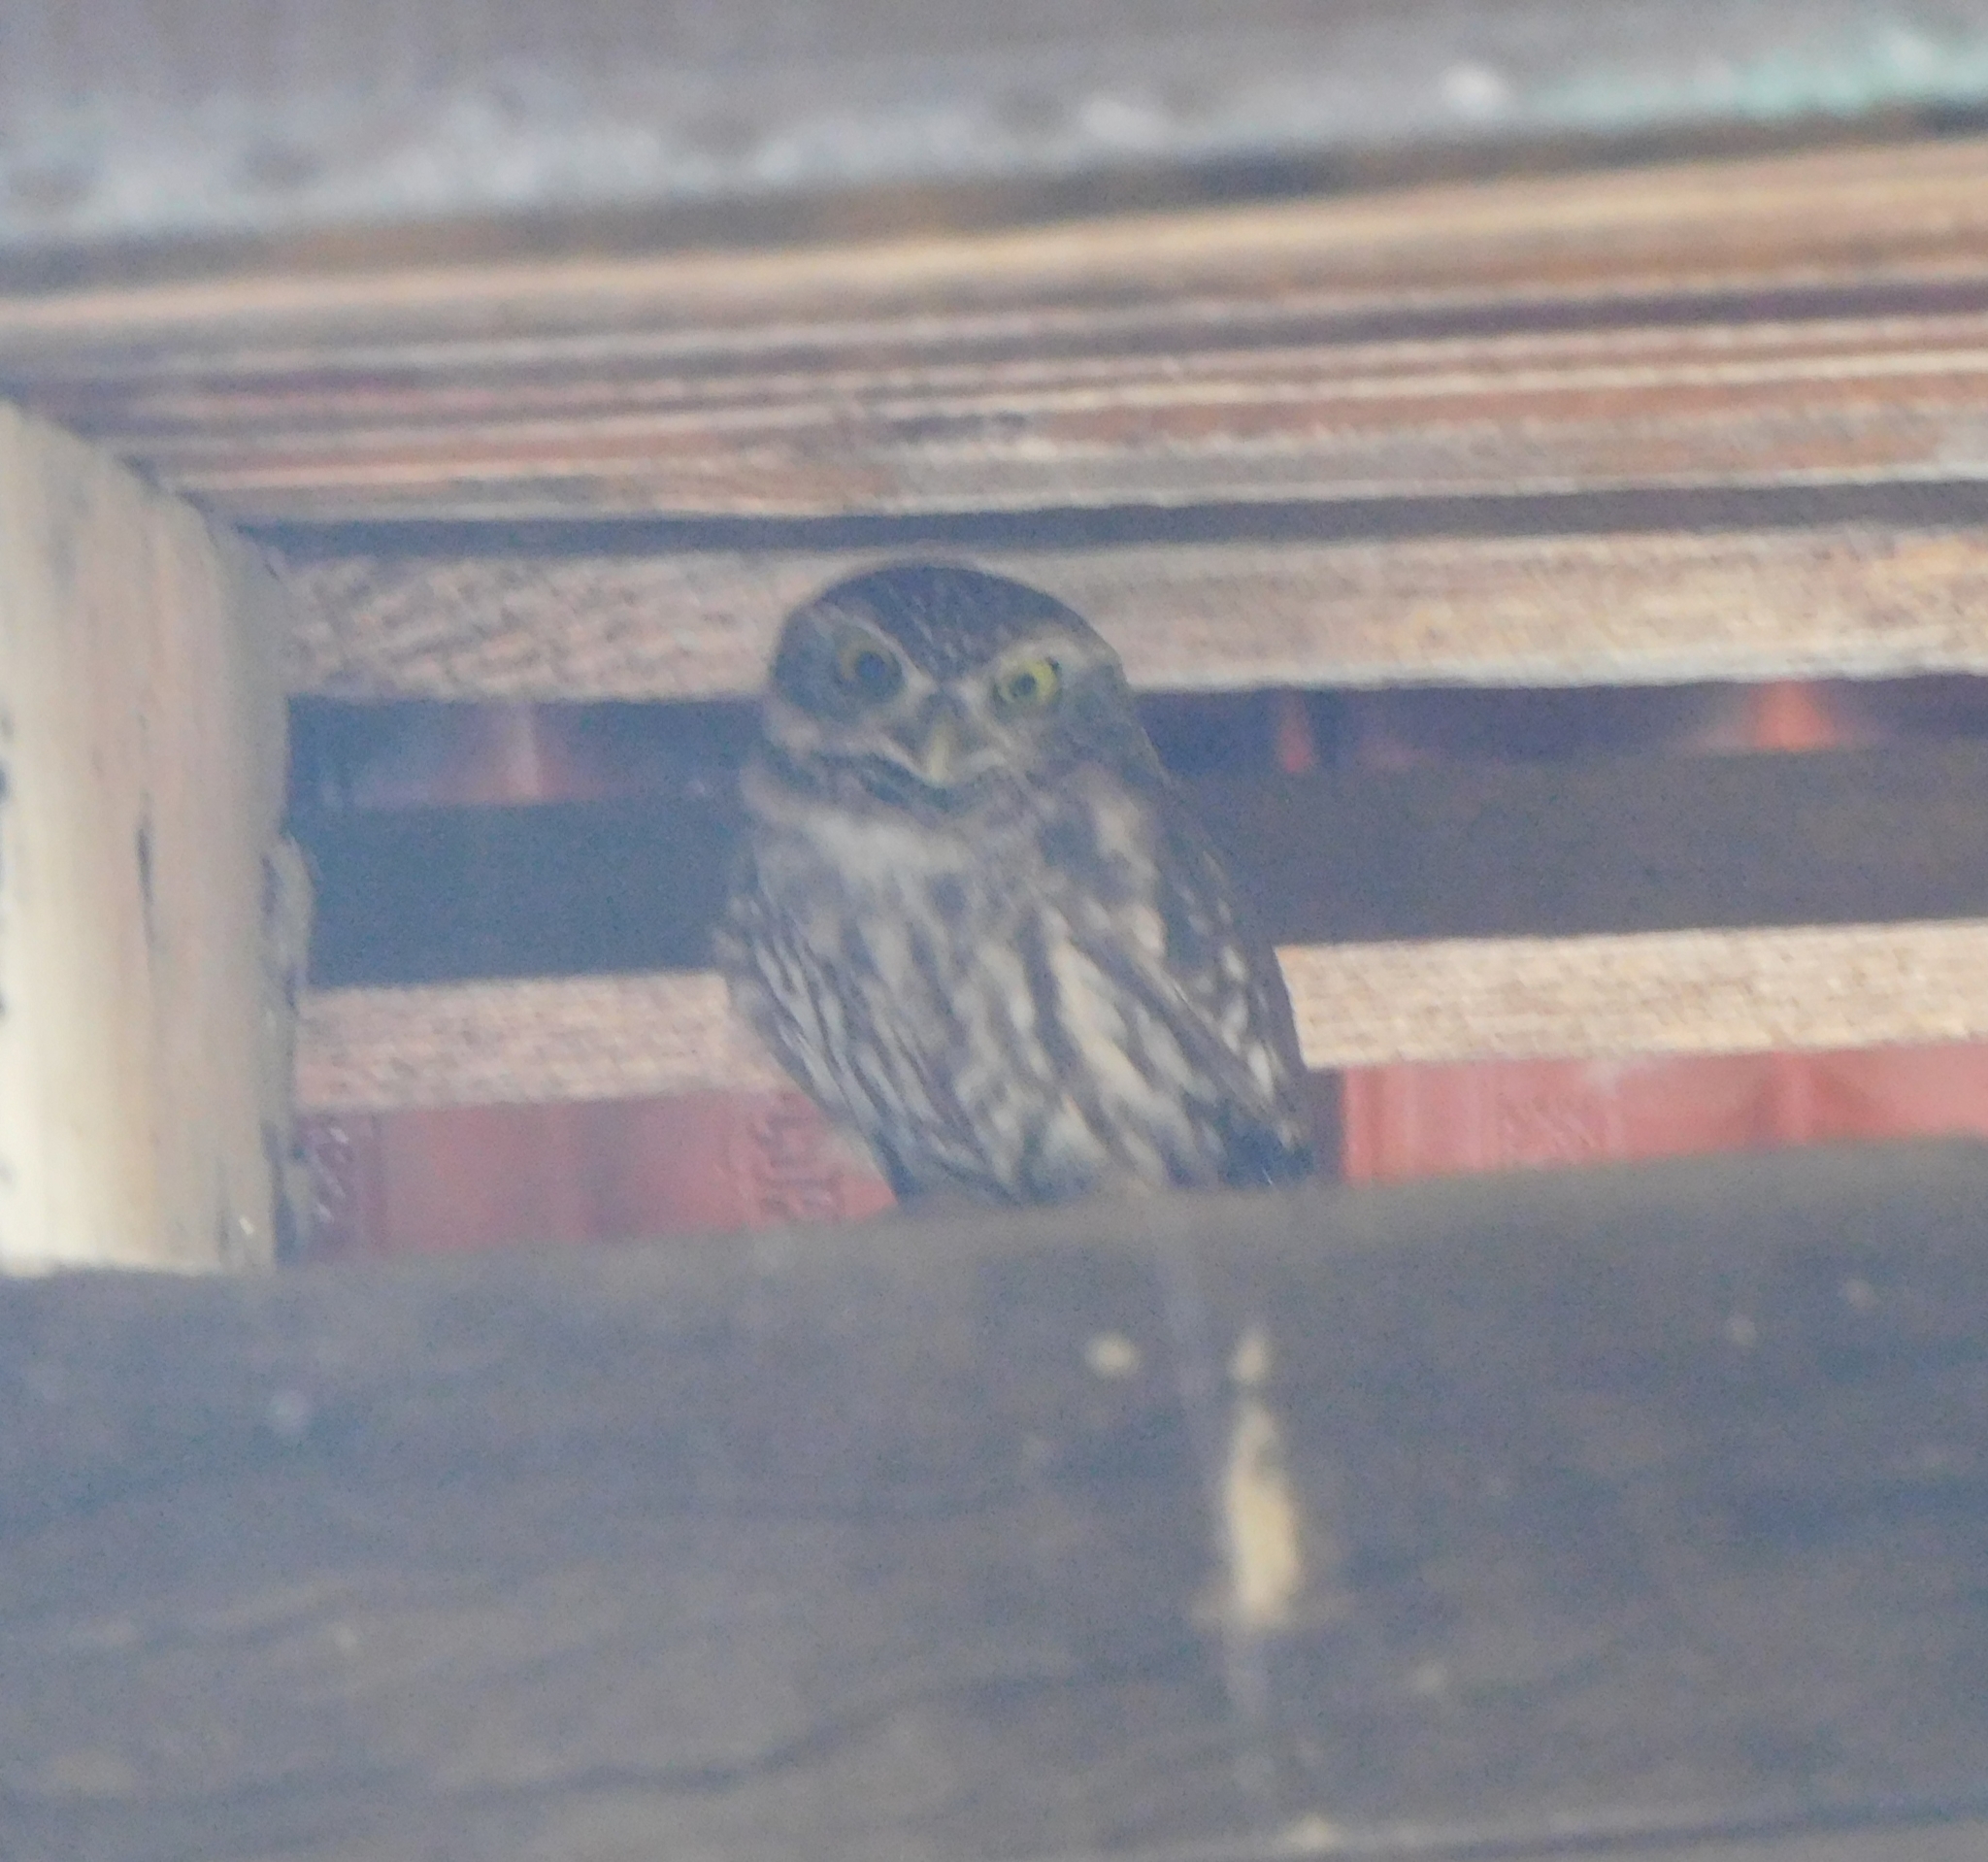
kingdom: Animalia
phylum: Chordata
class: Aves
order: Strigiformes
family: Strigidae
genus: Athene
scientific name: Athene noctua
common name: Little owl
